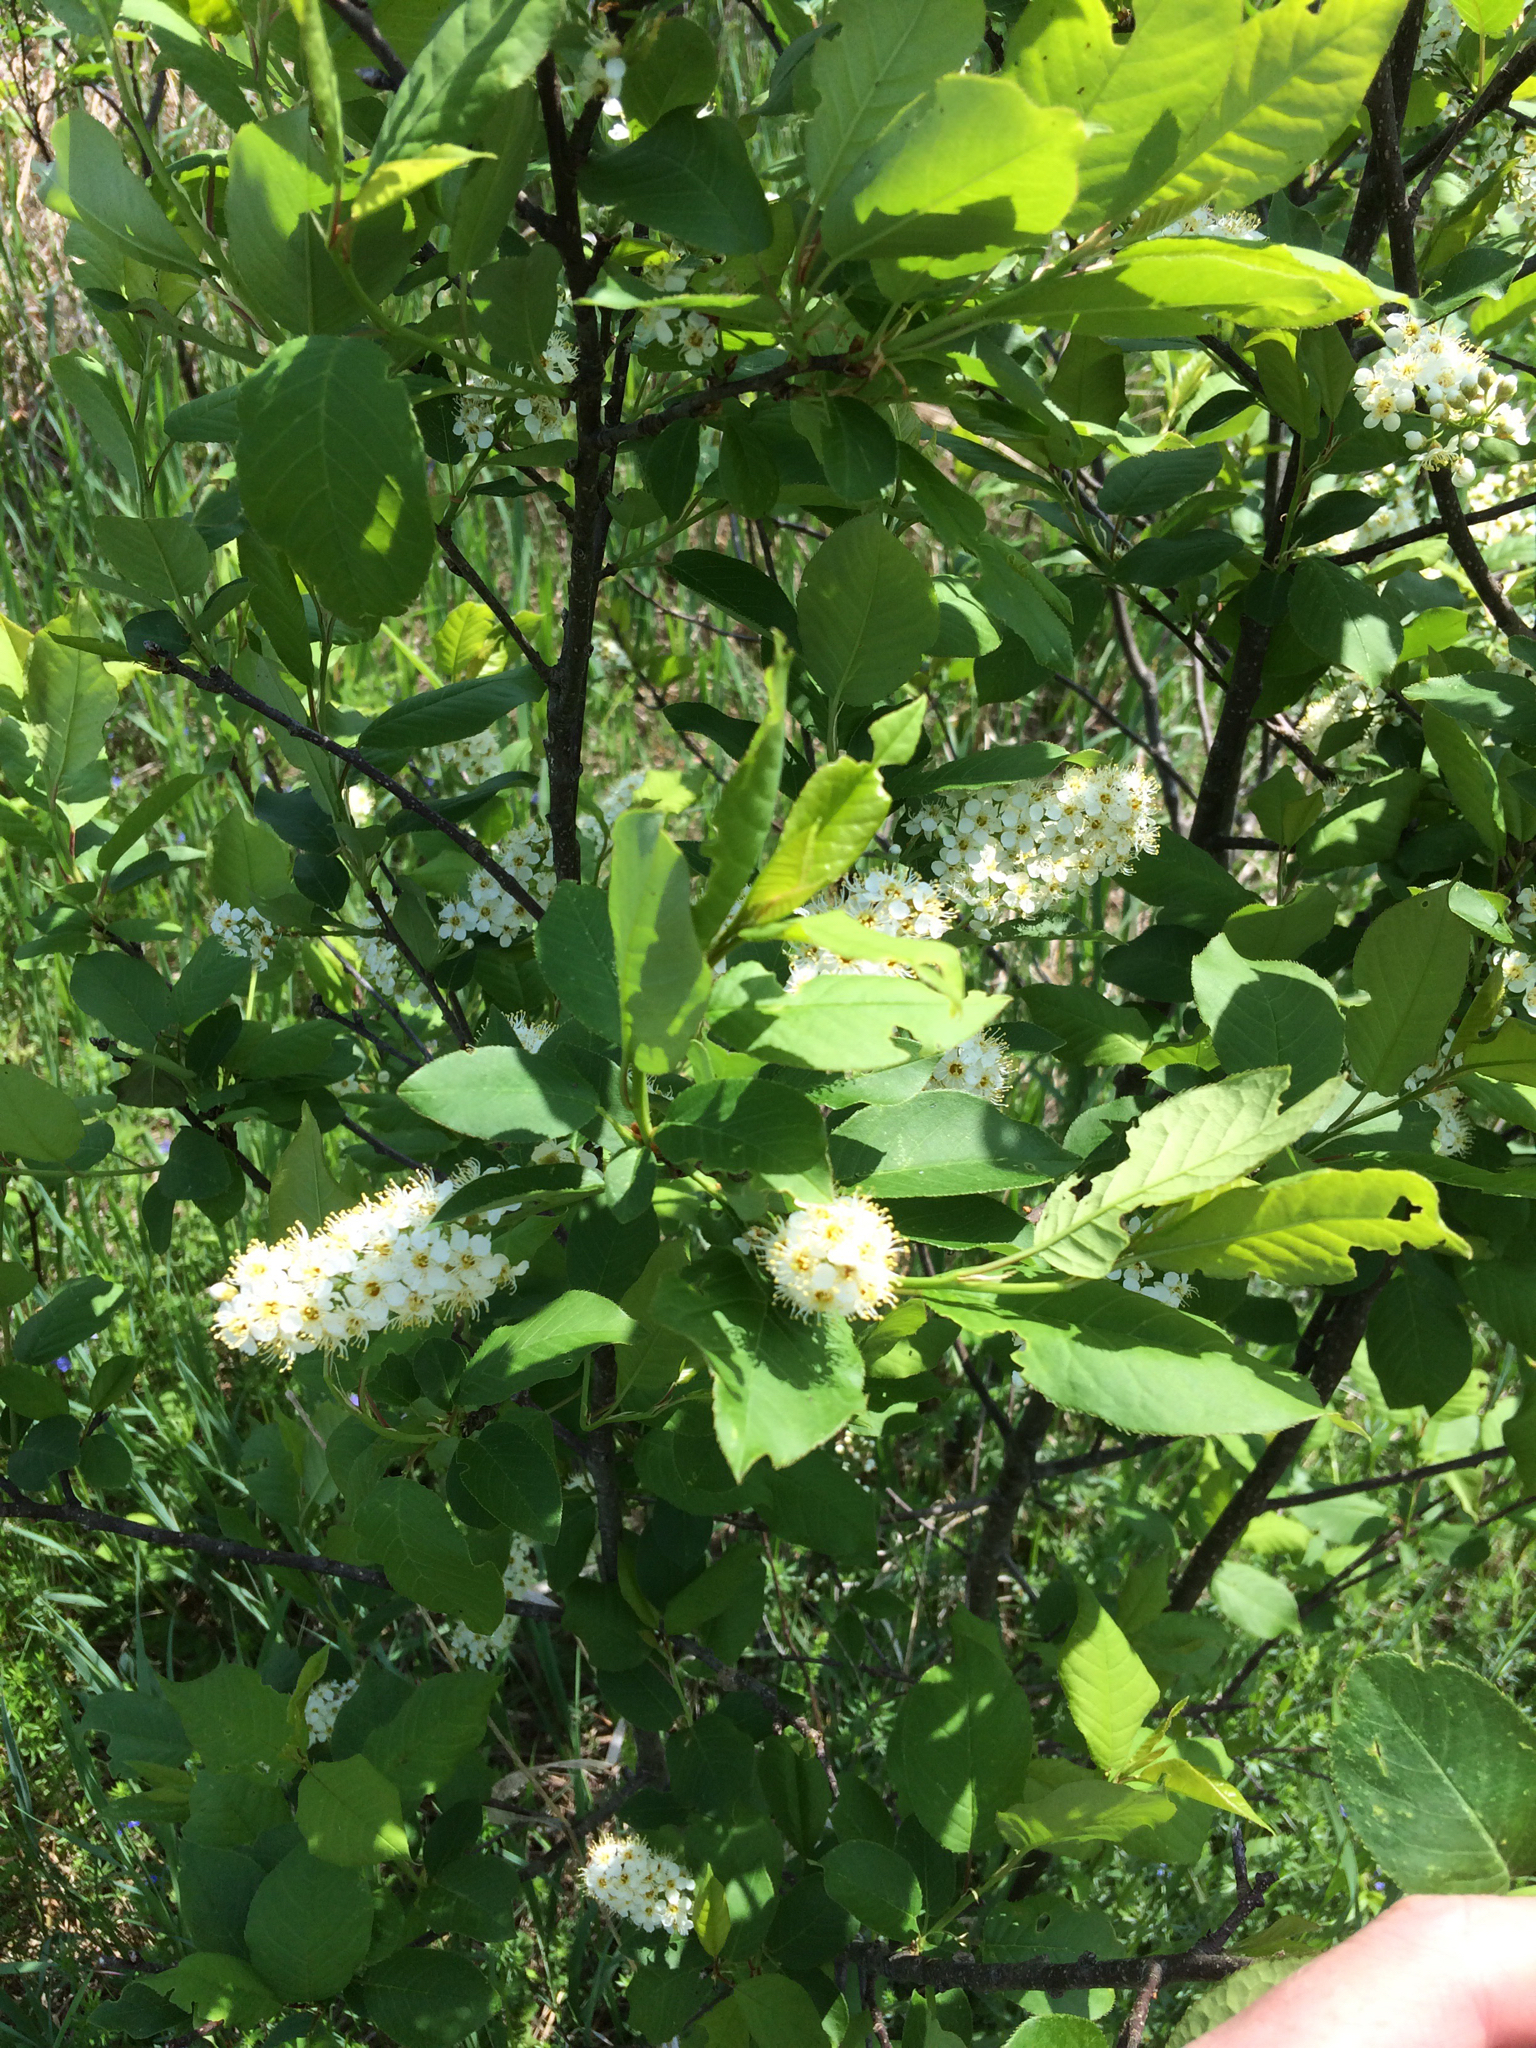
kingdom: Plantae
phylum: Tracheophyta
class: Magnoliopsida
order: Rosales
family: Rosaceae
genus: Prunus
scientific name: Prunus virginiana
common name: Chokecherry
